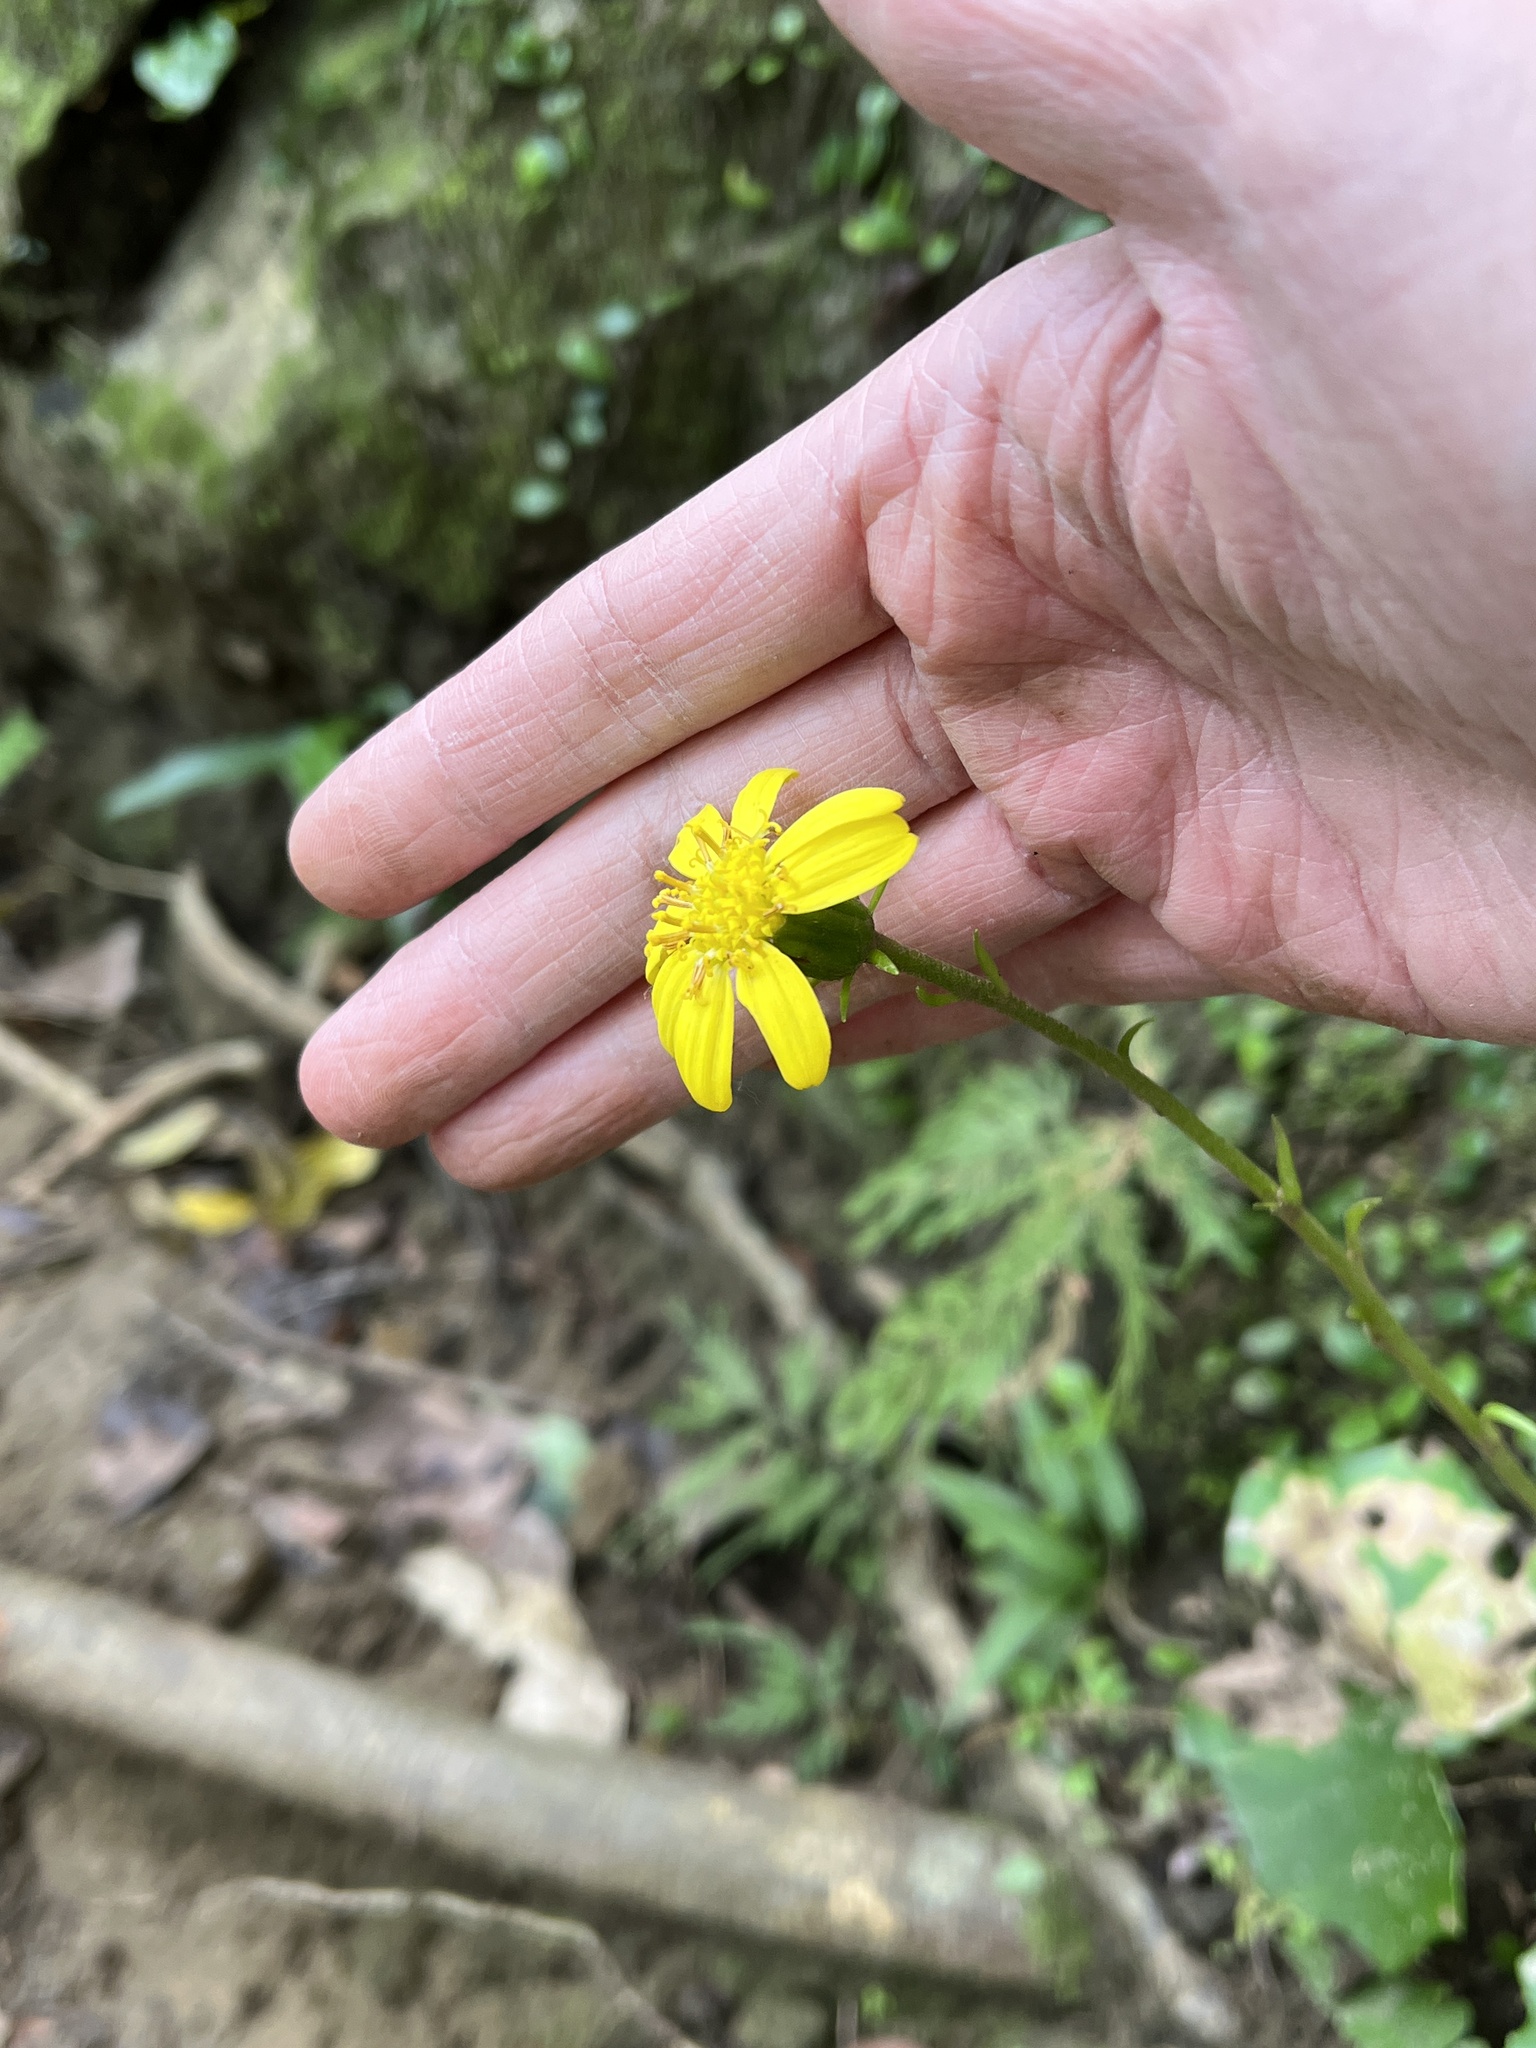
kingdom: Plantae
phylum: Tracheophyta
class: Magnoliopsida
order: Asterales
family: Asteraceae
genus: Farfugium
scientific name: Farfugium japonicum
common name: Leopardplant
